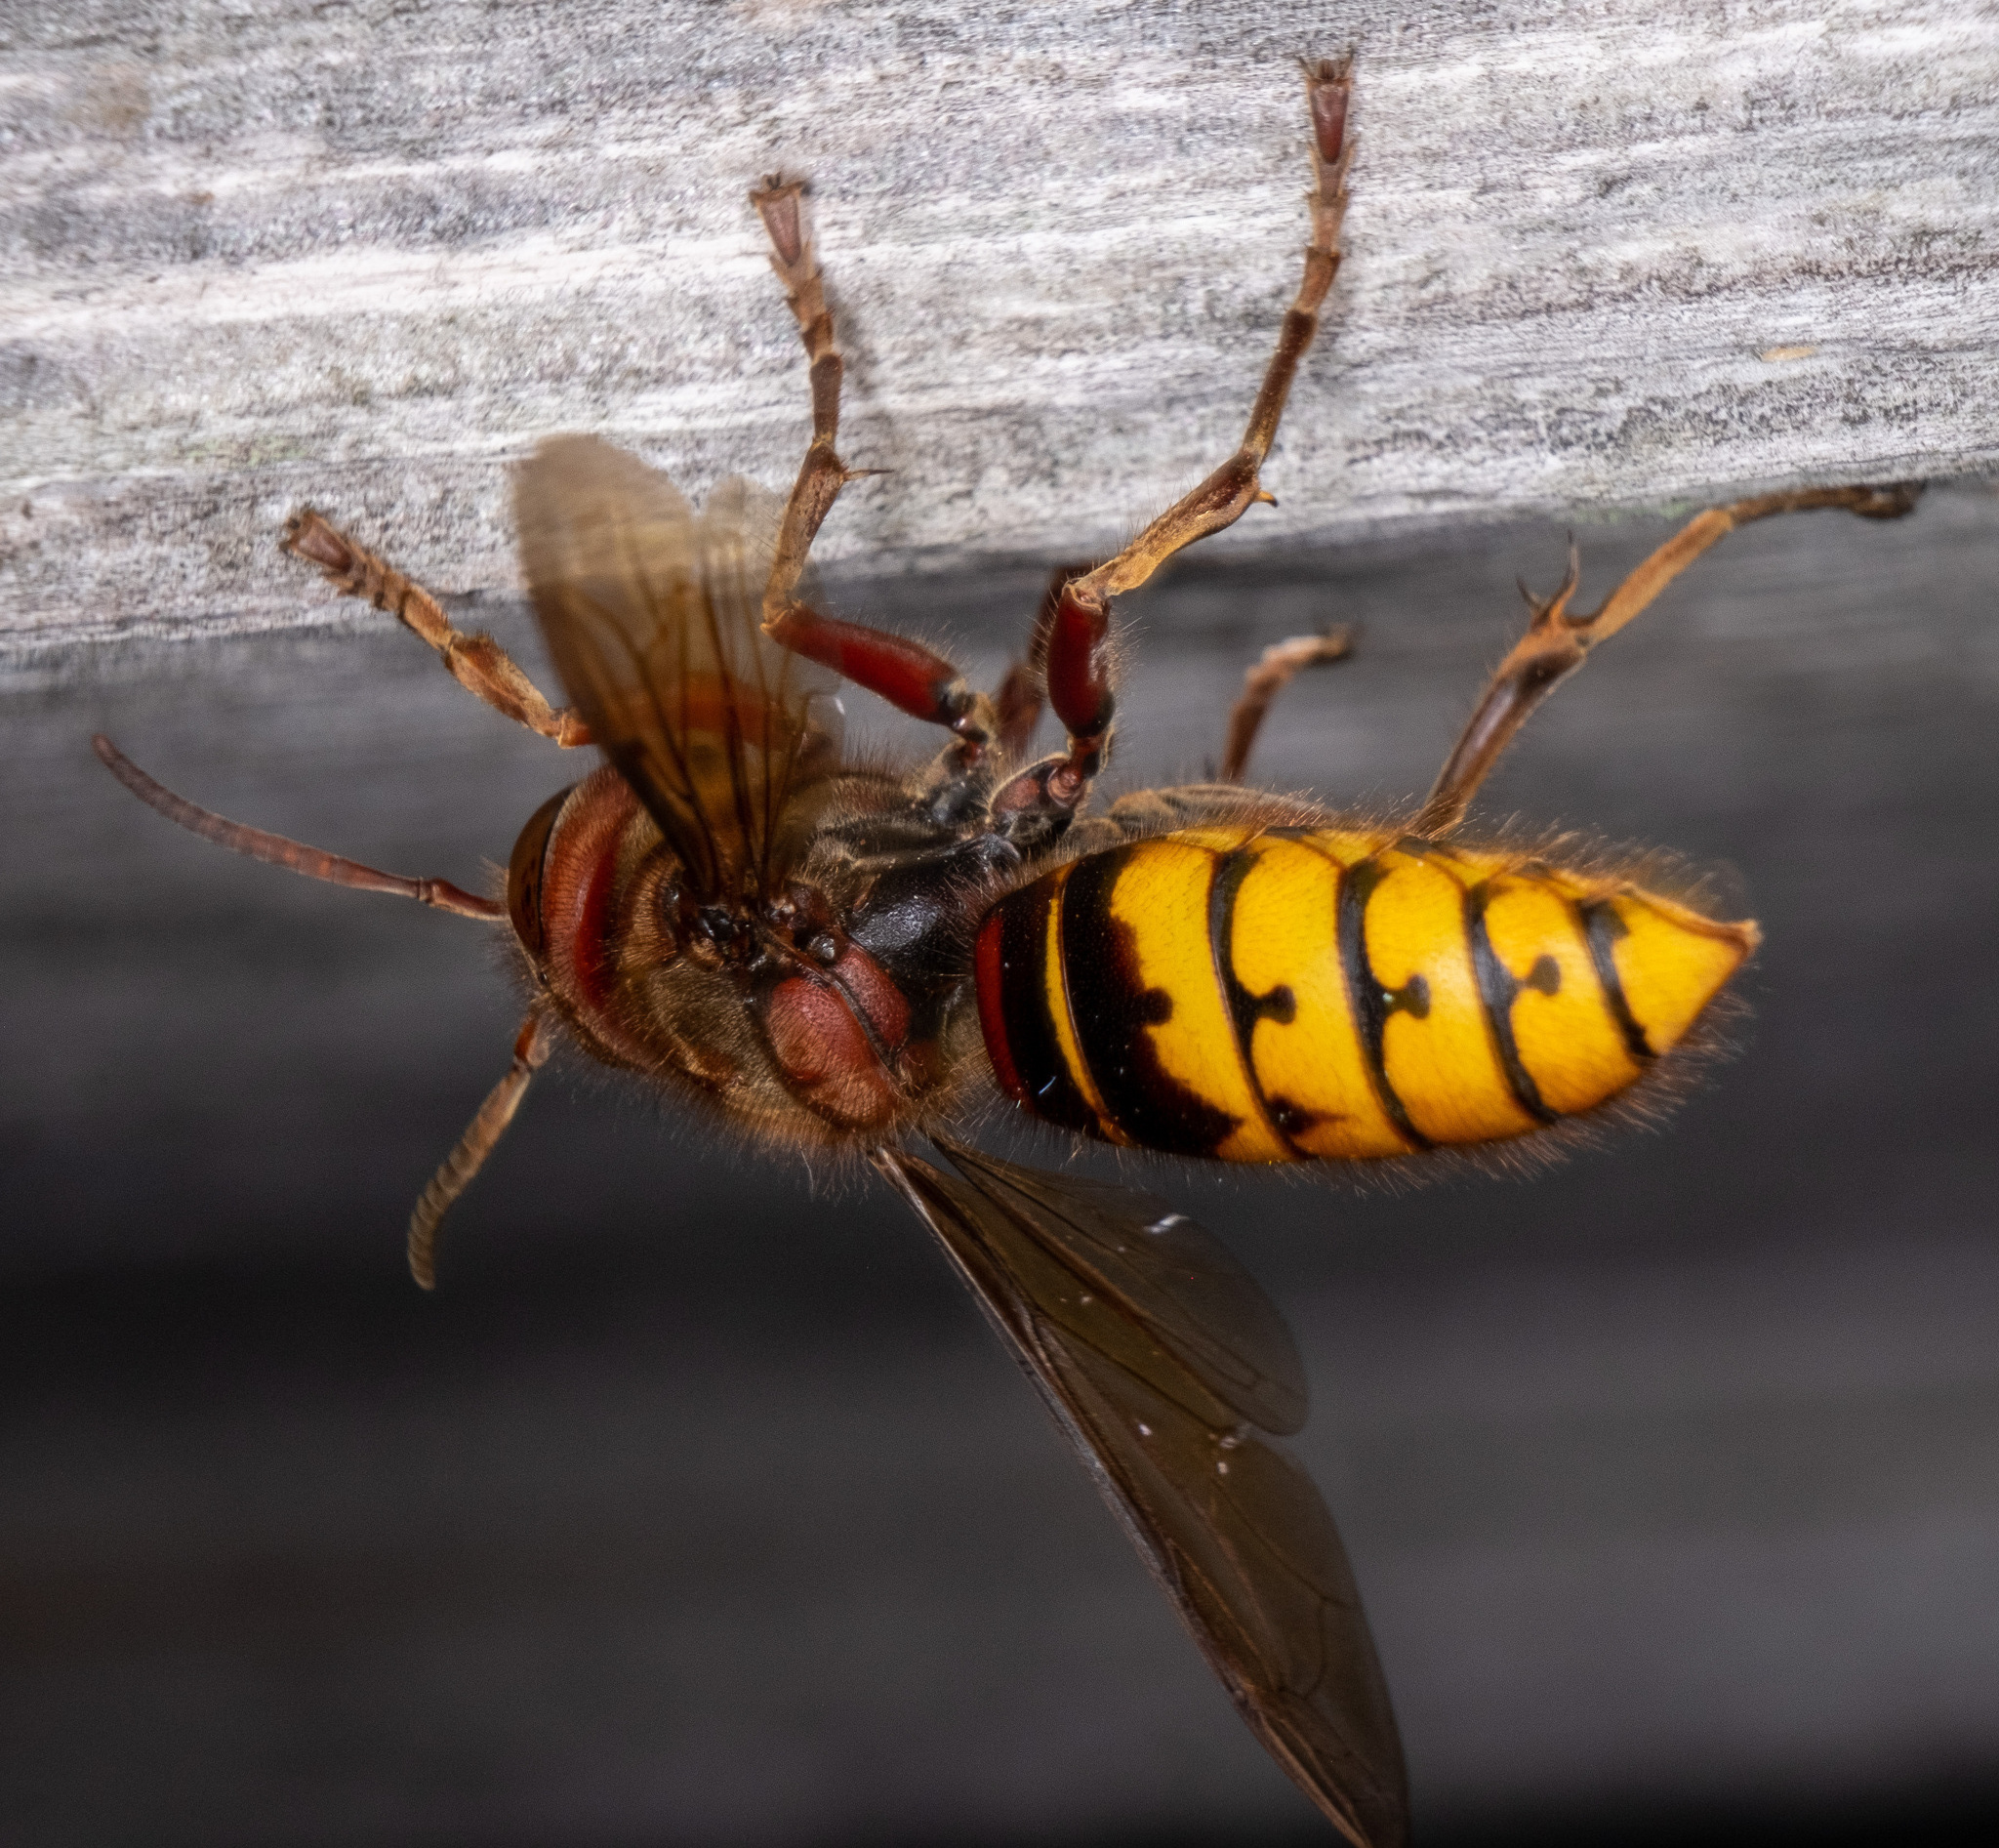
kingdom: Animalia
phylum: Arthropoda
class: Insecta
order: Hymenoptera
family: Vespidae
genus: Vespa
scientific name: Vespa crabro
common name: Hornet
